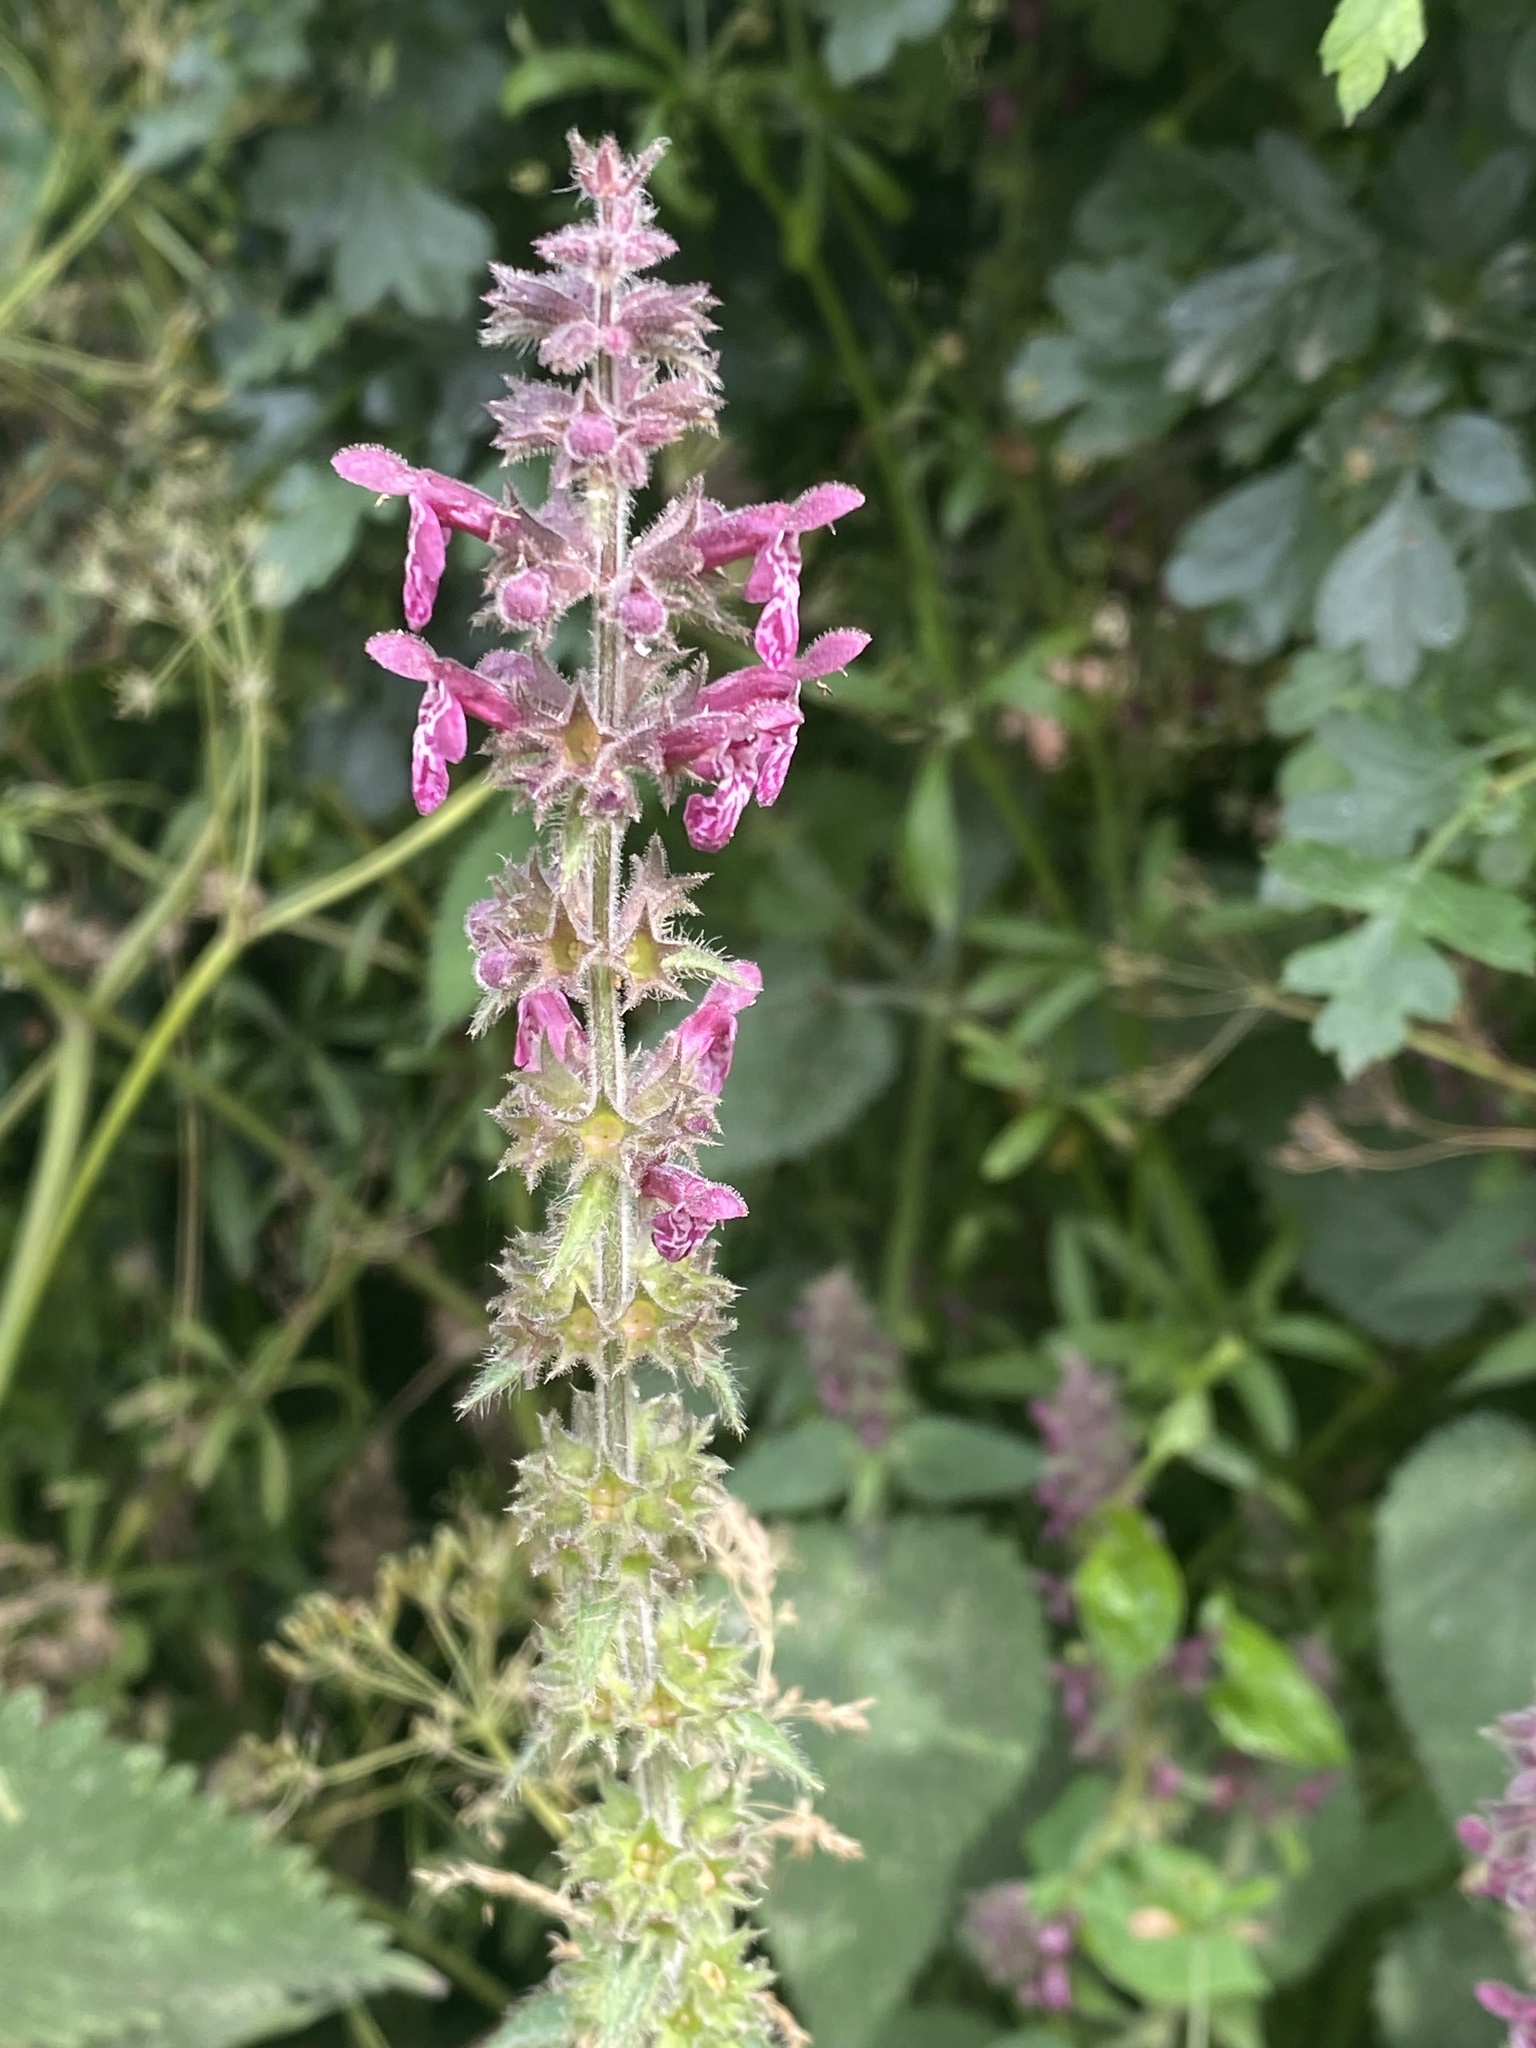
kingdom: Plantae
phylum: Tracheophyta
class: Magnoliopsida
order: Lamiales
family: Lamiaceae
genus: Stachys
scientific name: Stachys sylvatica
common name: Hedge woundwort
